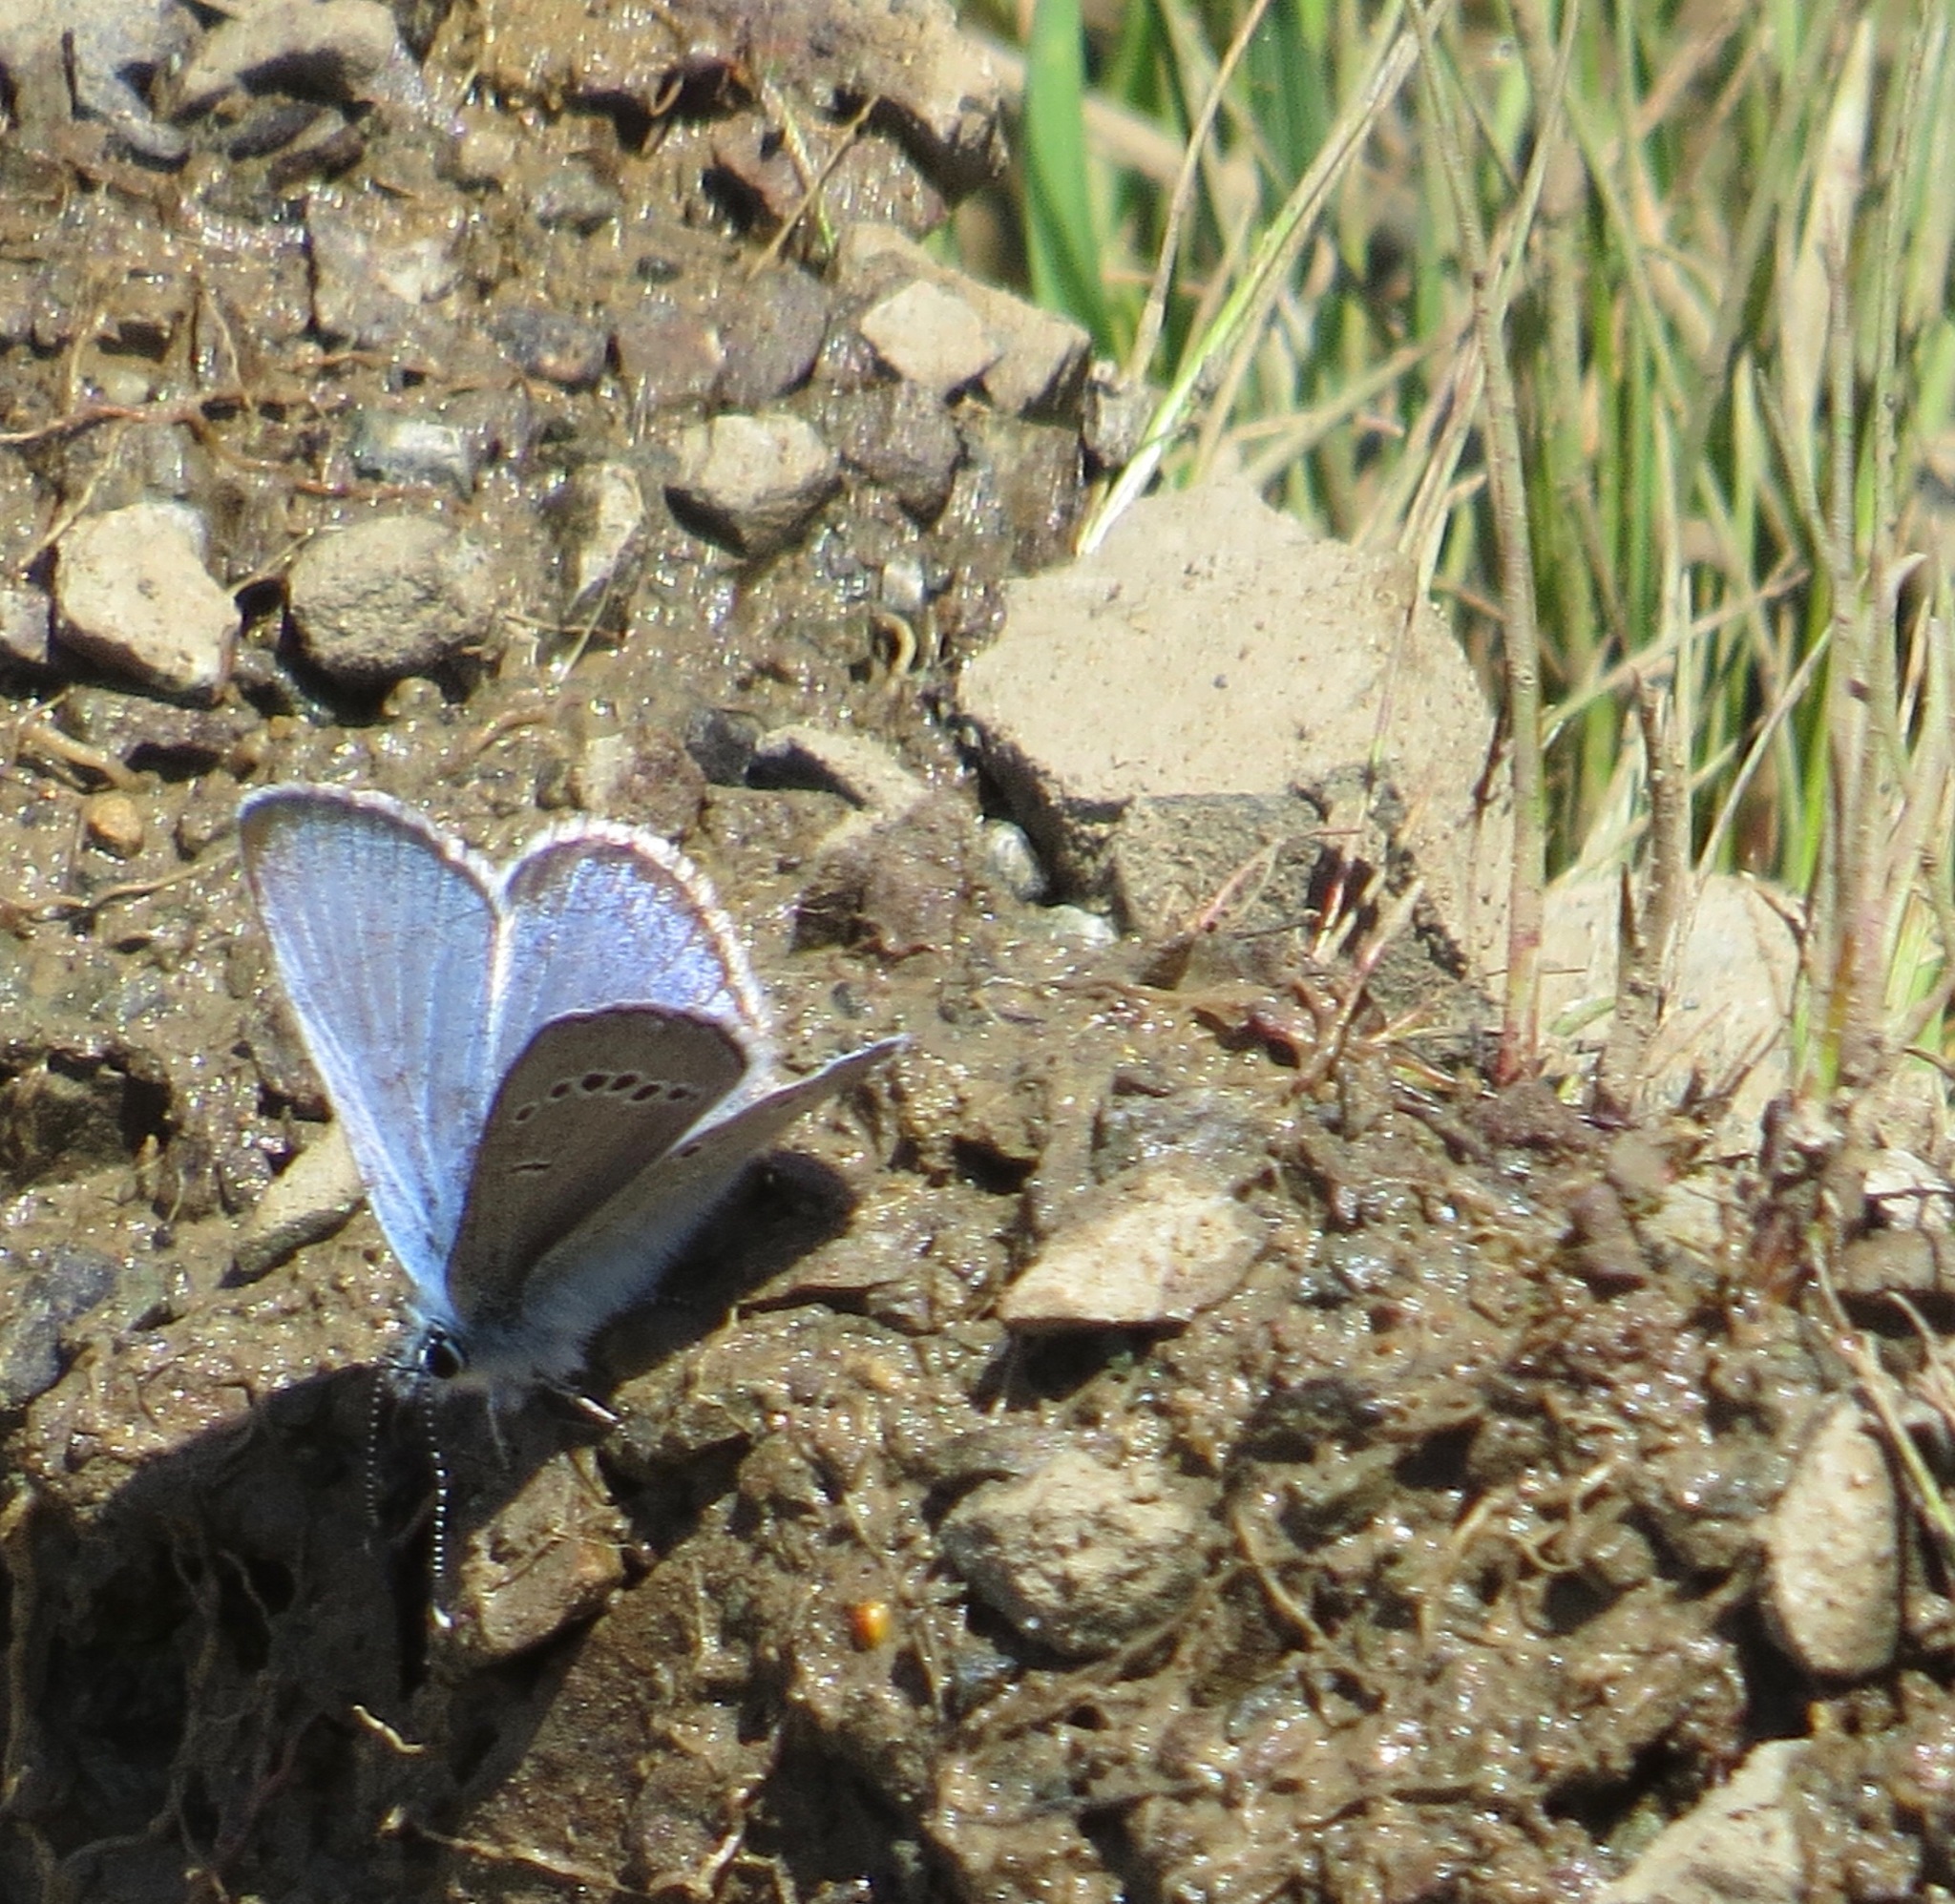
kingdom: Animalia
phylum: Arthropoda
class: Insecta
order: Lepidoptera
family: Lycaenidae
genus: Glaucopsyche
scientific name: Glaucopsyche lygdamus
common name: Silvery blue
